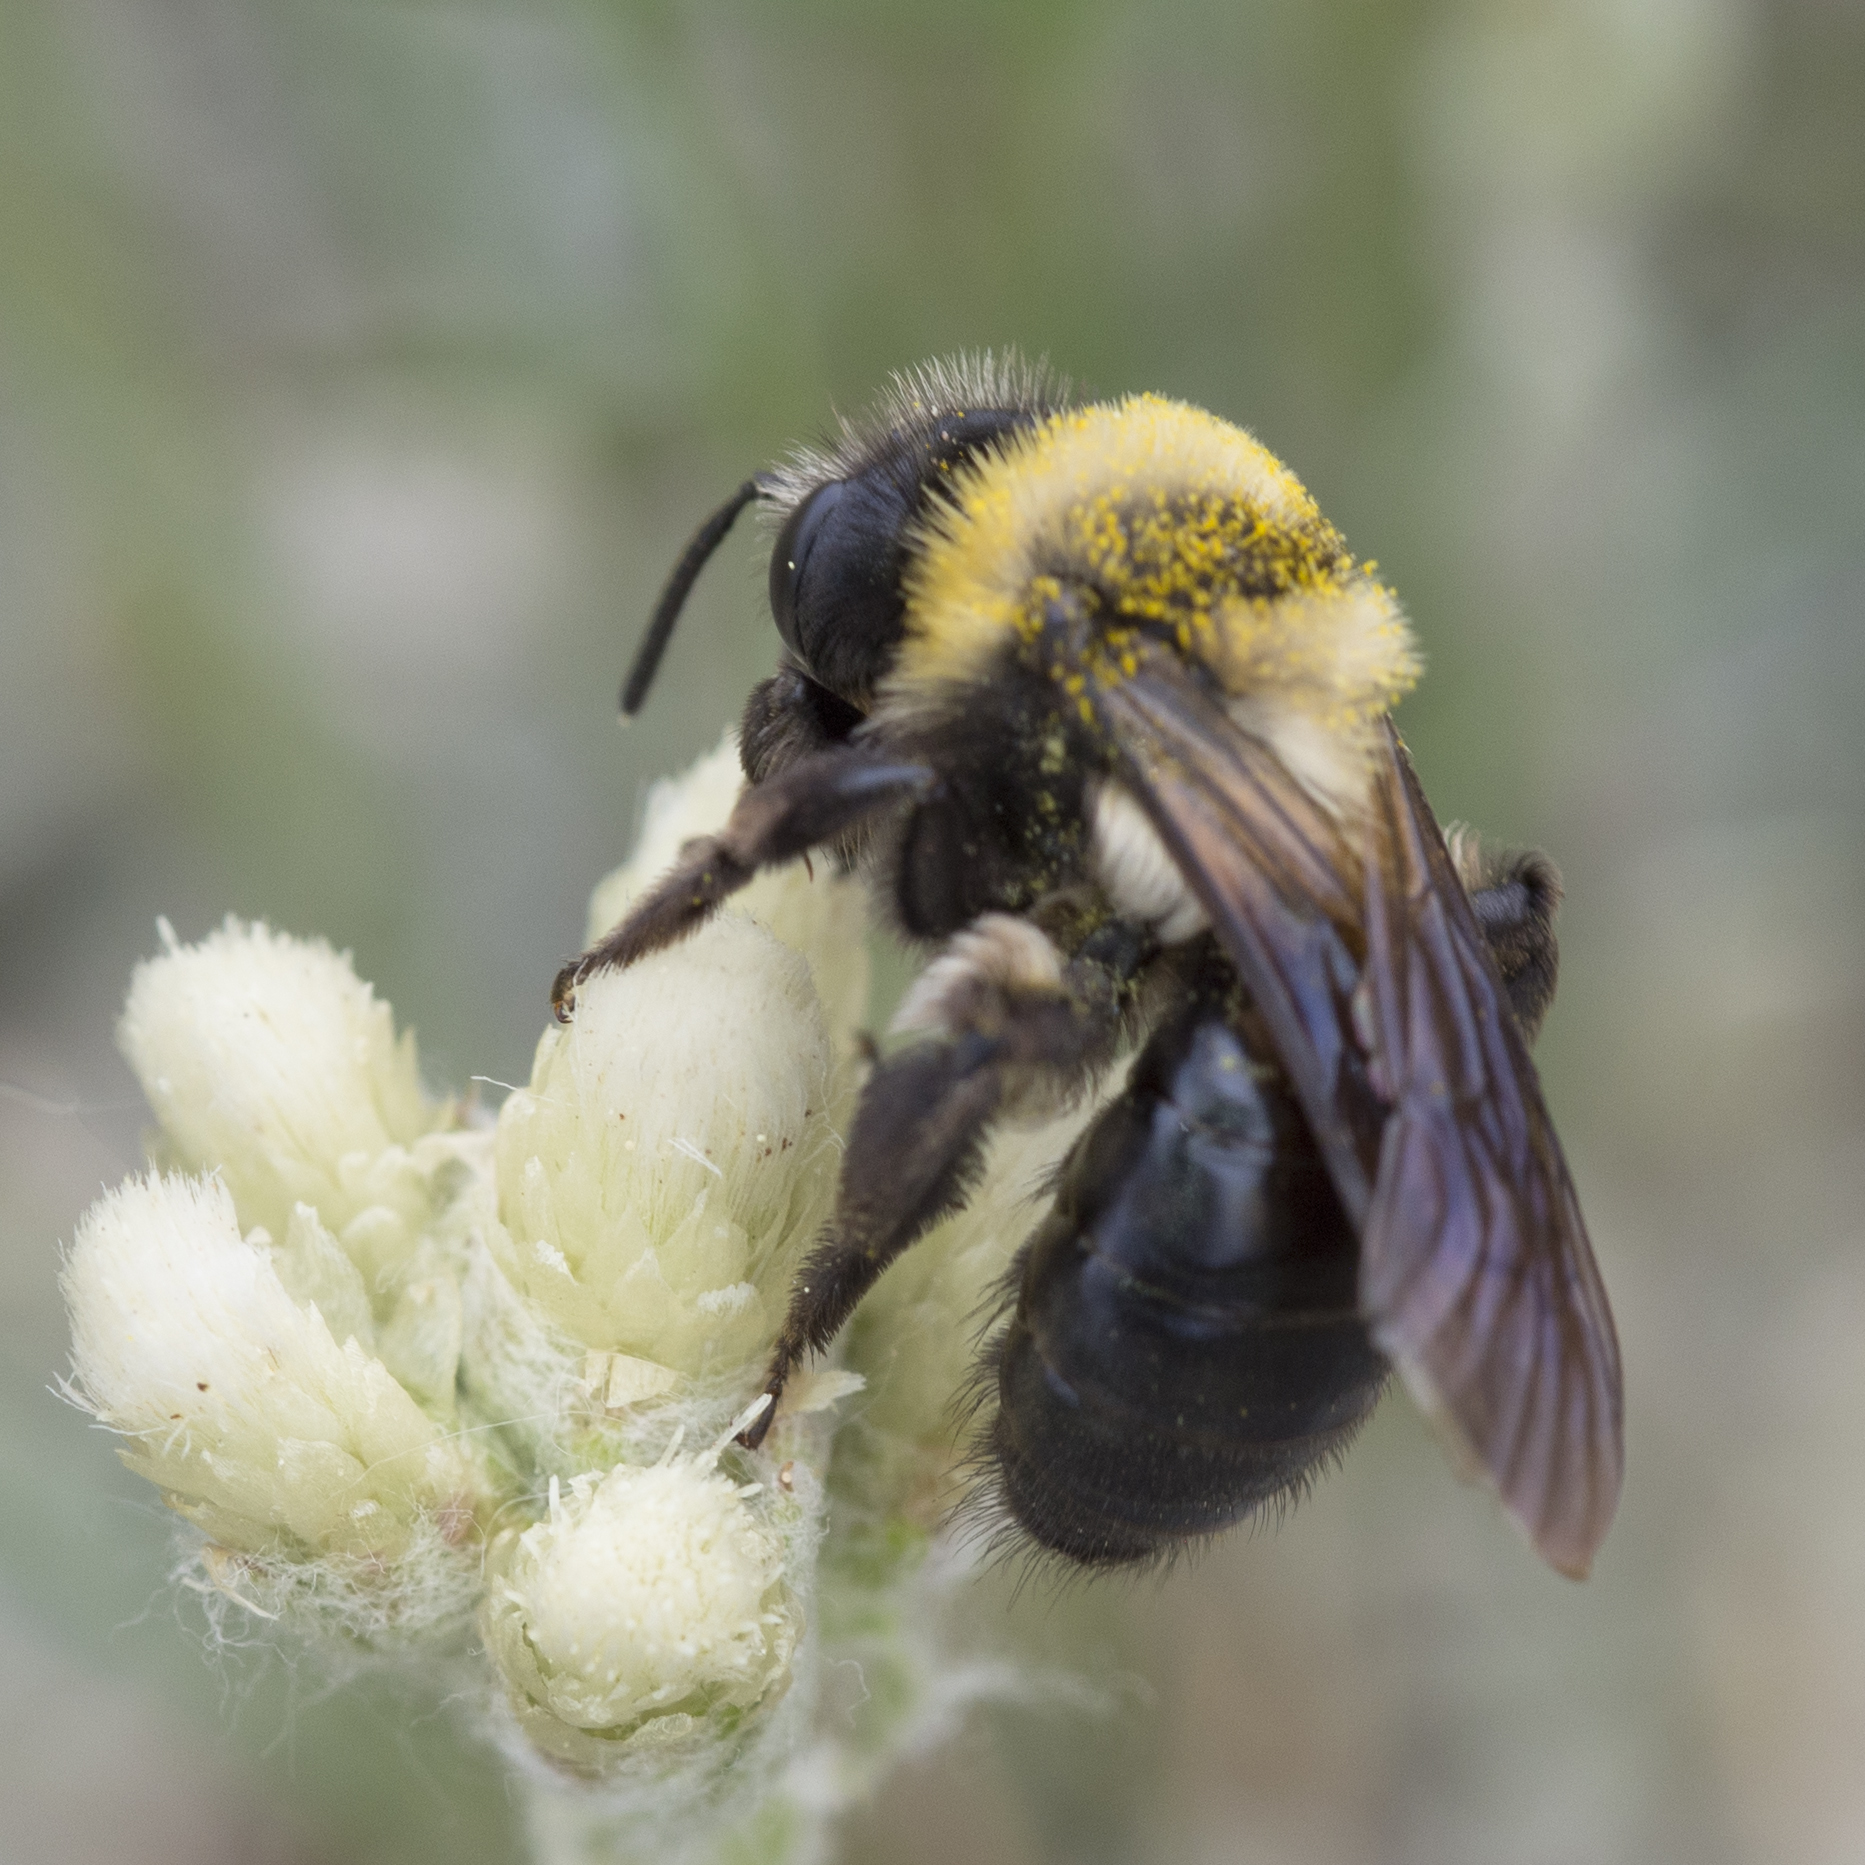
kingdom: Animalia
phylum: Arthropoda
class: Insecta
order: Hymenoptera
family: Andrenidae
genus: Andrena
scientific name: Andrena
